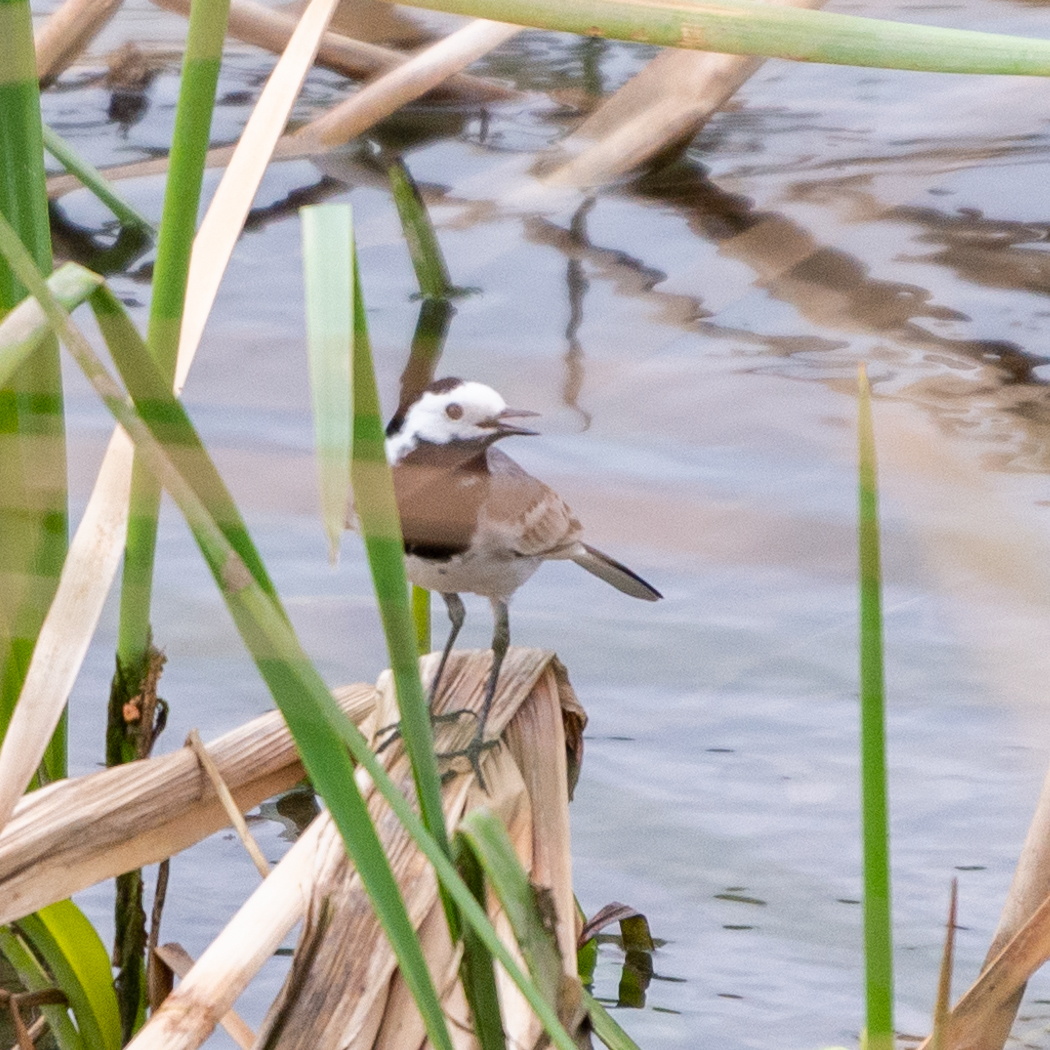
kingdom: Animalia
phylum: Chordata
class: Aves
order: Passeriformes
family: Motacillidae
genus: Motacilla
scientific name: Motacilla alba
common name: White wagtail
